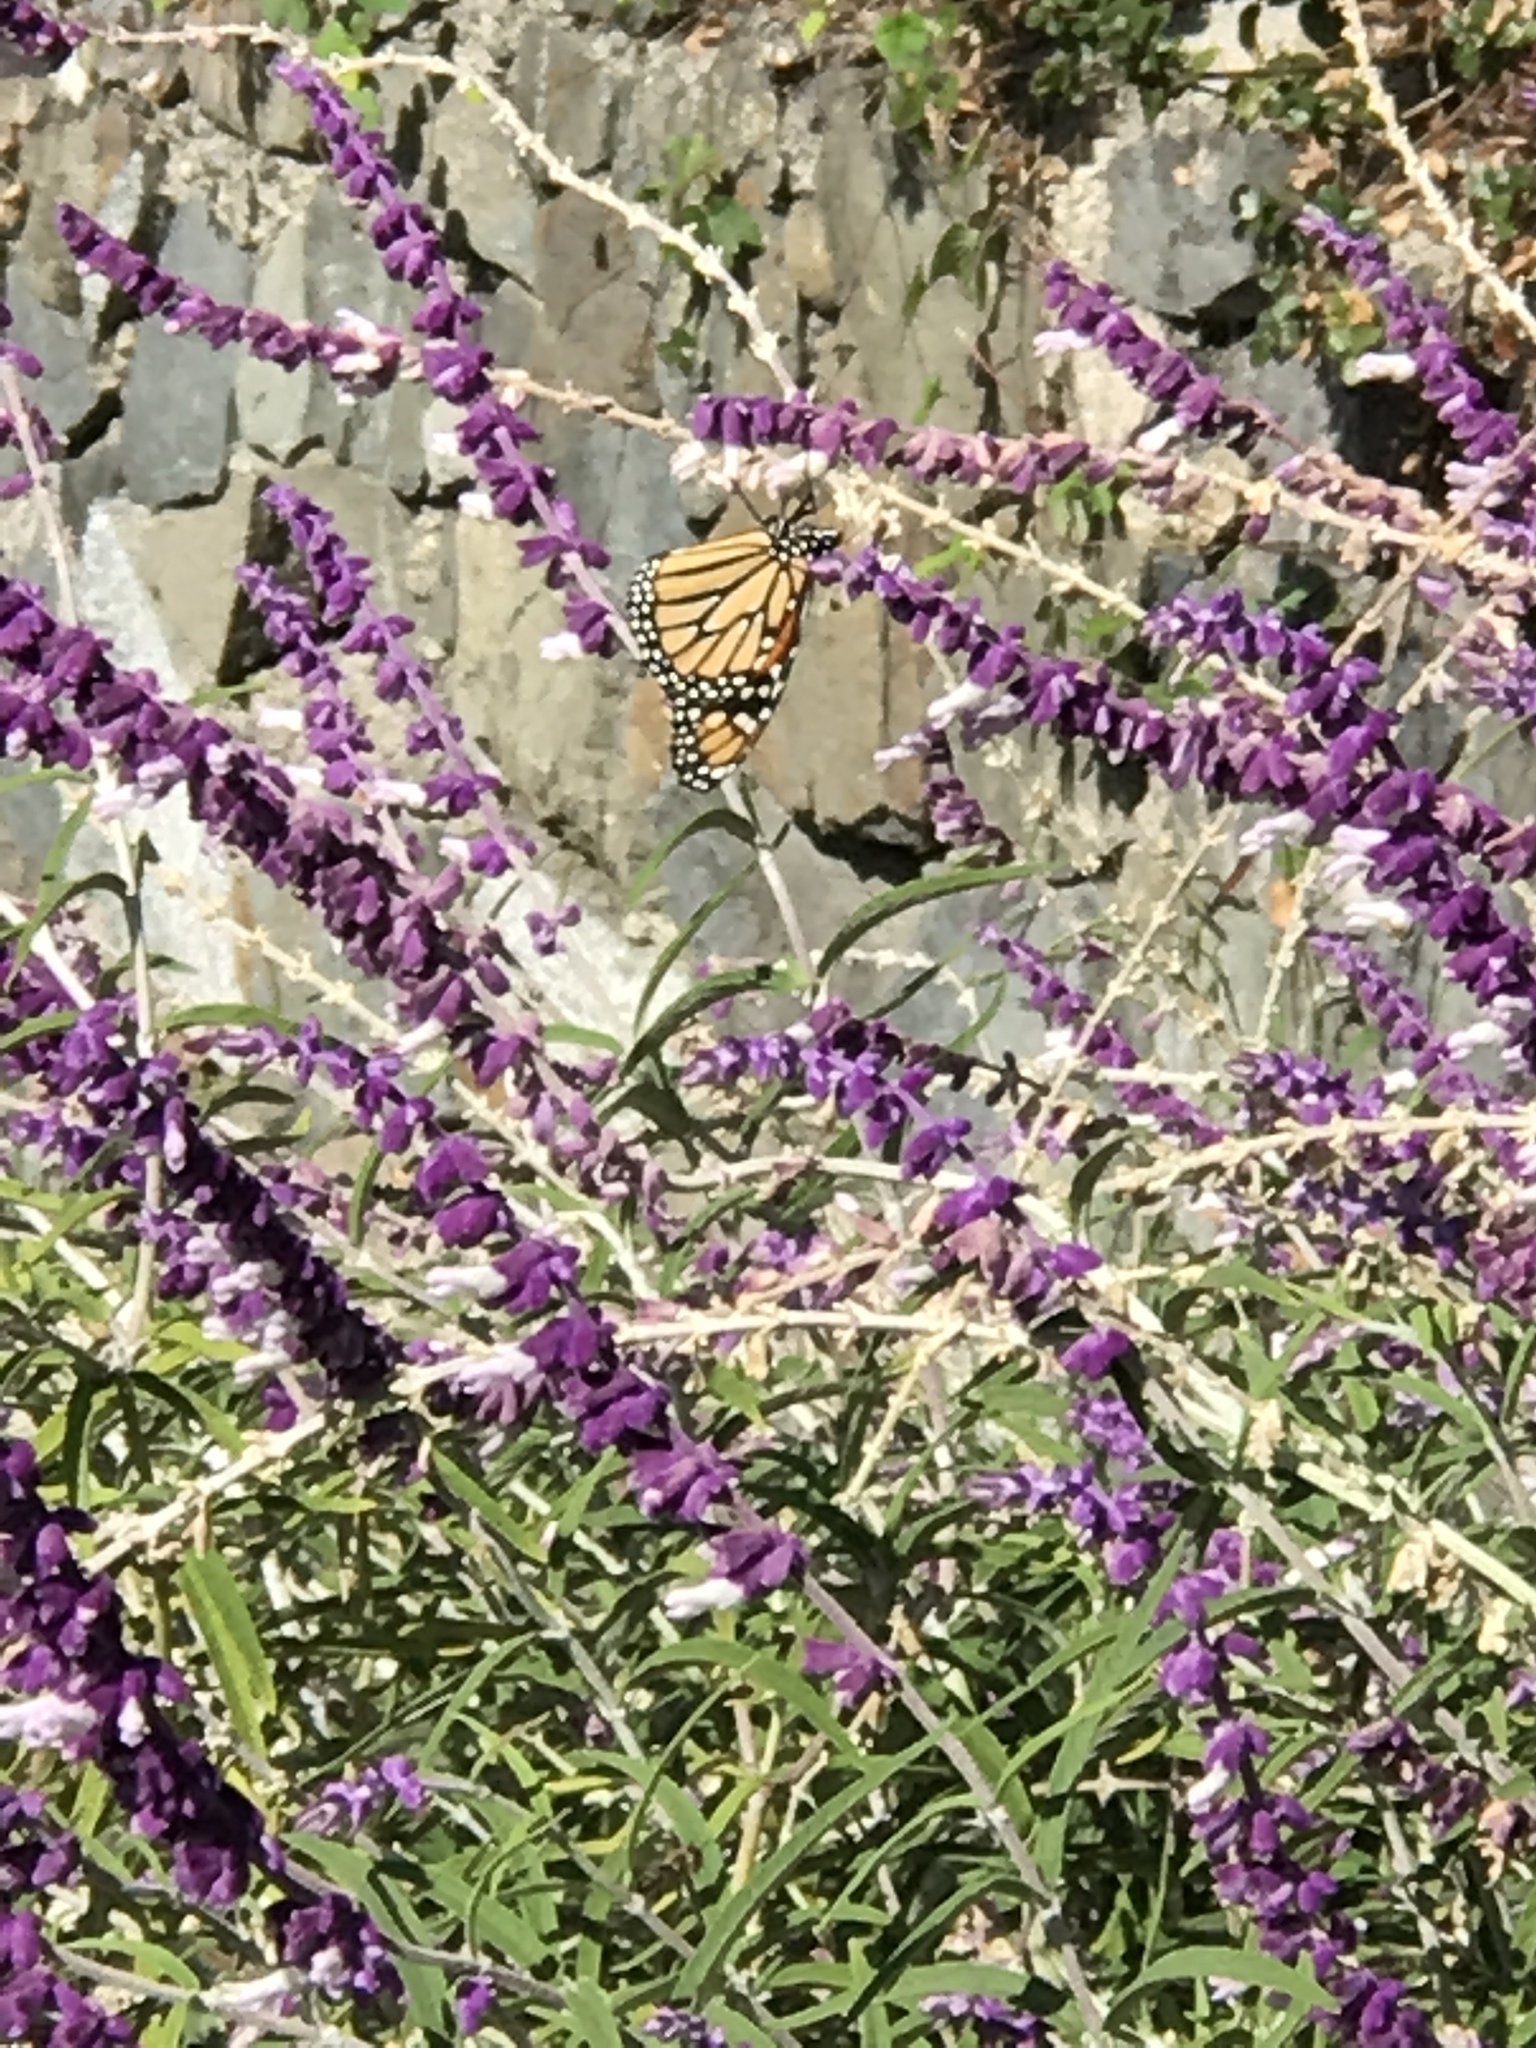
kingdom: Animalia
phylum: Arthropoda
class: Insecta
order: Lepidoptera
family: Nymphalidae
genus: Danaus
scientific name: Danaus plexippus
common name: Monarch
